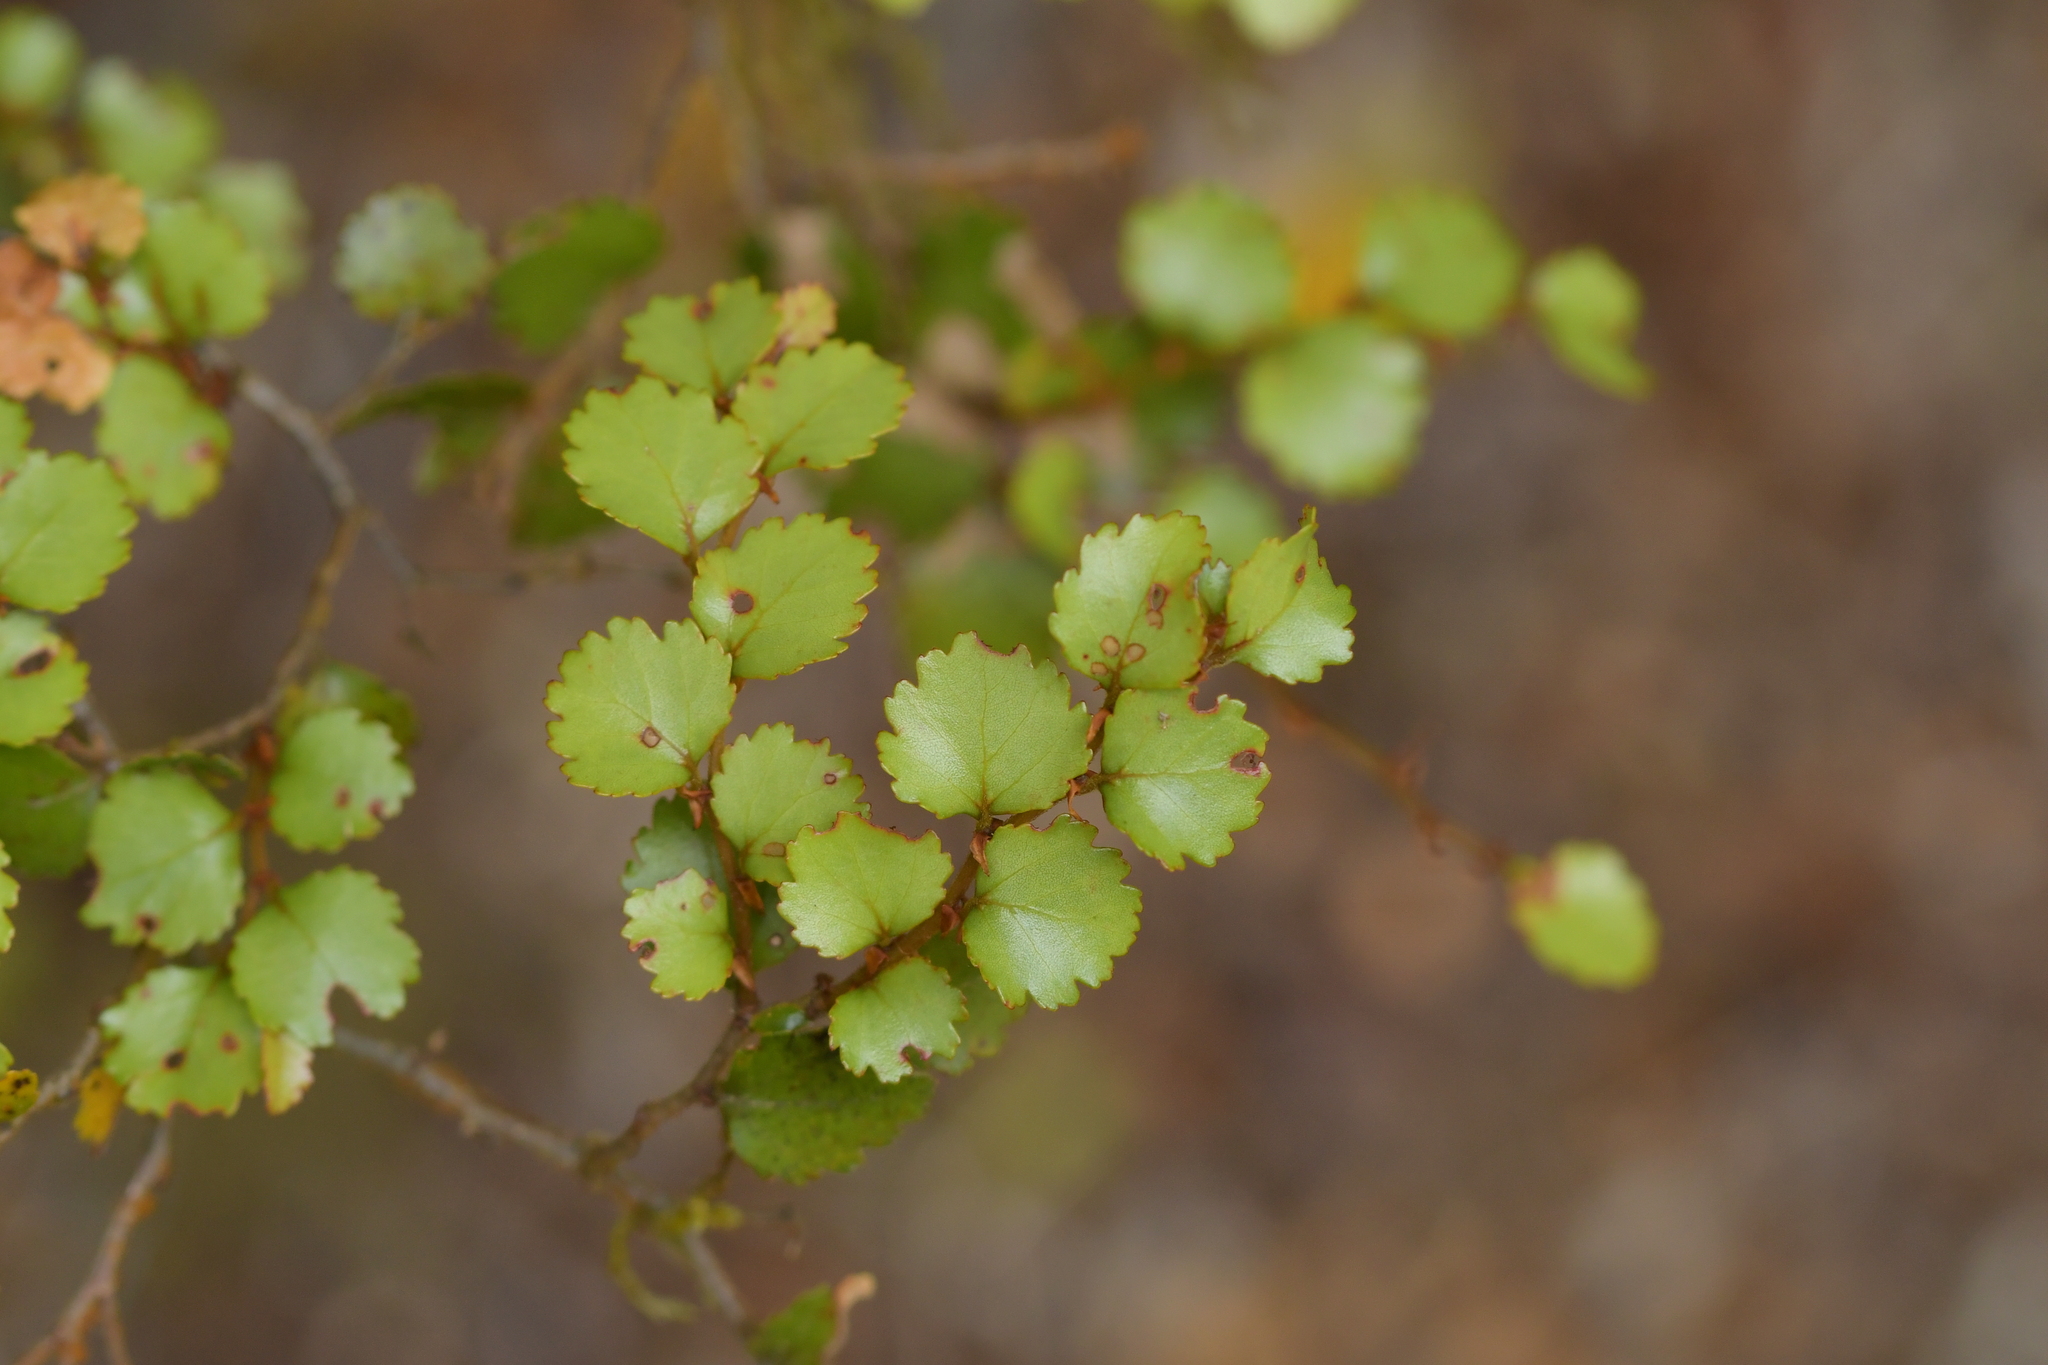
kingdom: Plantae
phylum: Tracheophyta
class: Magnoliopsida
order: Fagales
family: Nothofagaceae
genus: Nothofagus
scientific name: Nothofagus menziesii
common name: Silver beech
